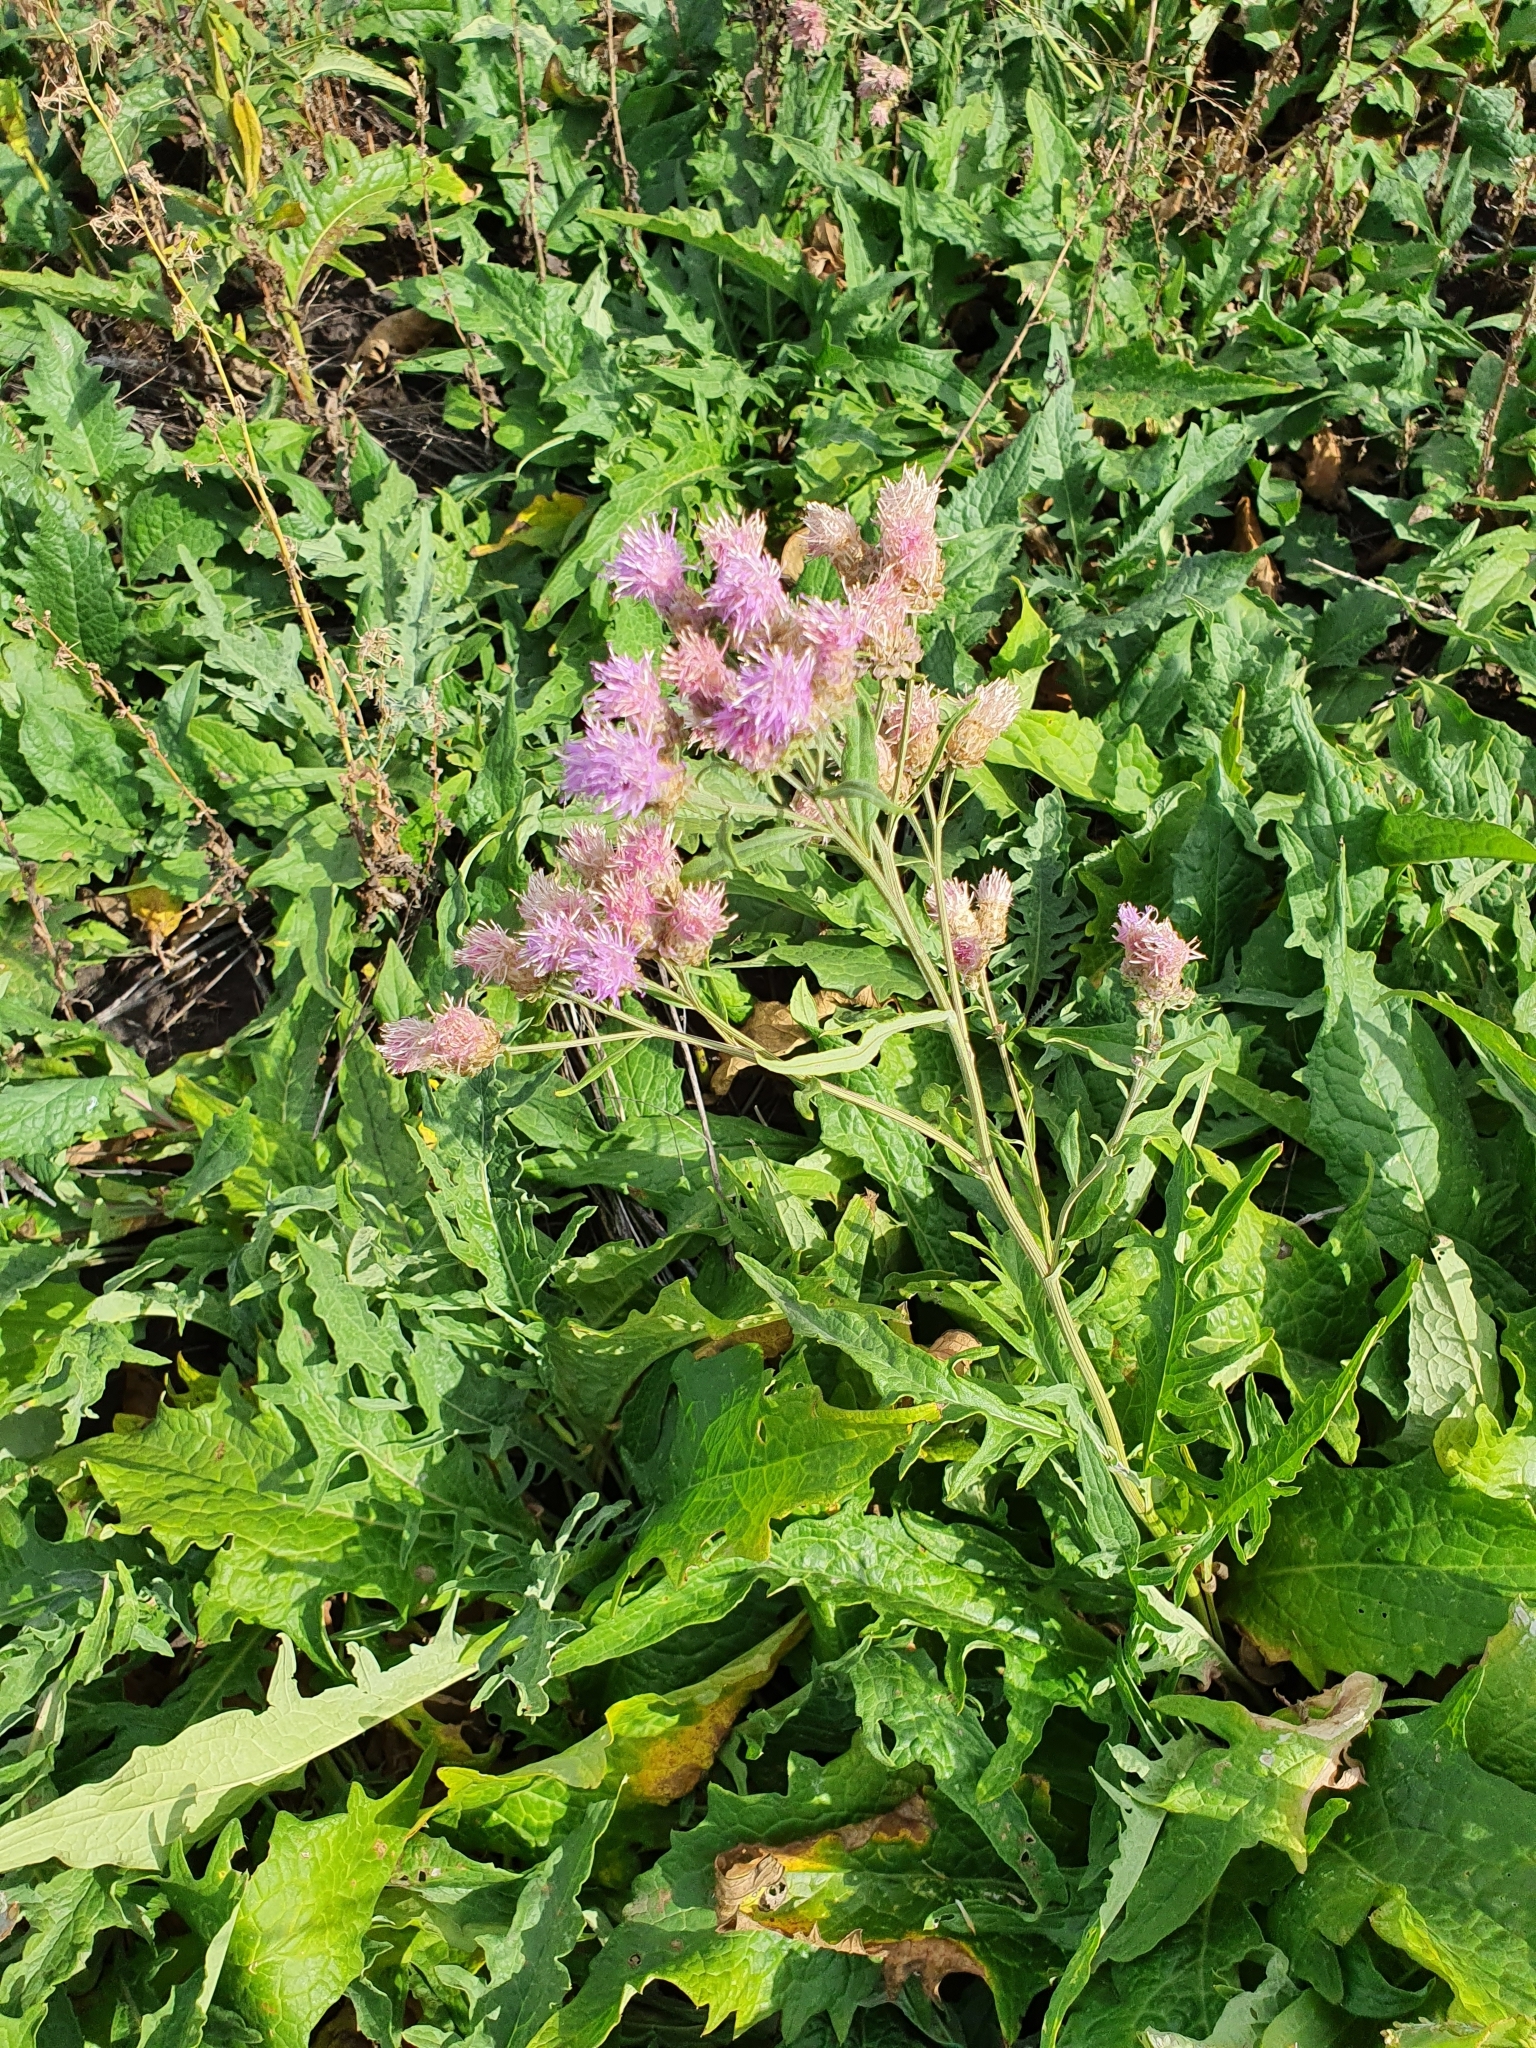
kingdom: Plantae
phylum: Tracheophyta
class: Magnoliopsida
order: Asterales
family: Asteraceae
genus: Saussurea
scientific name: Saussurea amara
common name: Alberta sawwort
